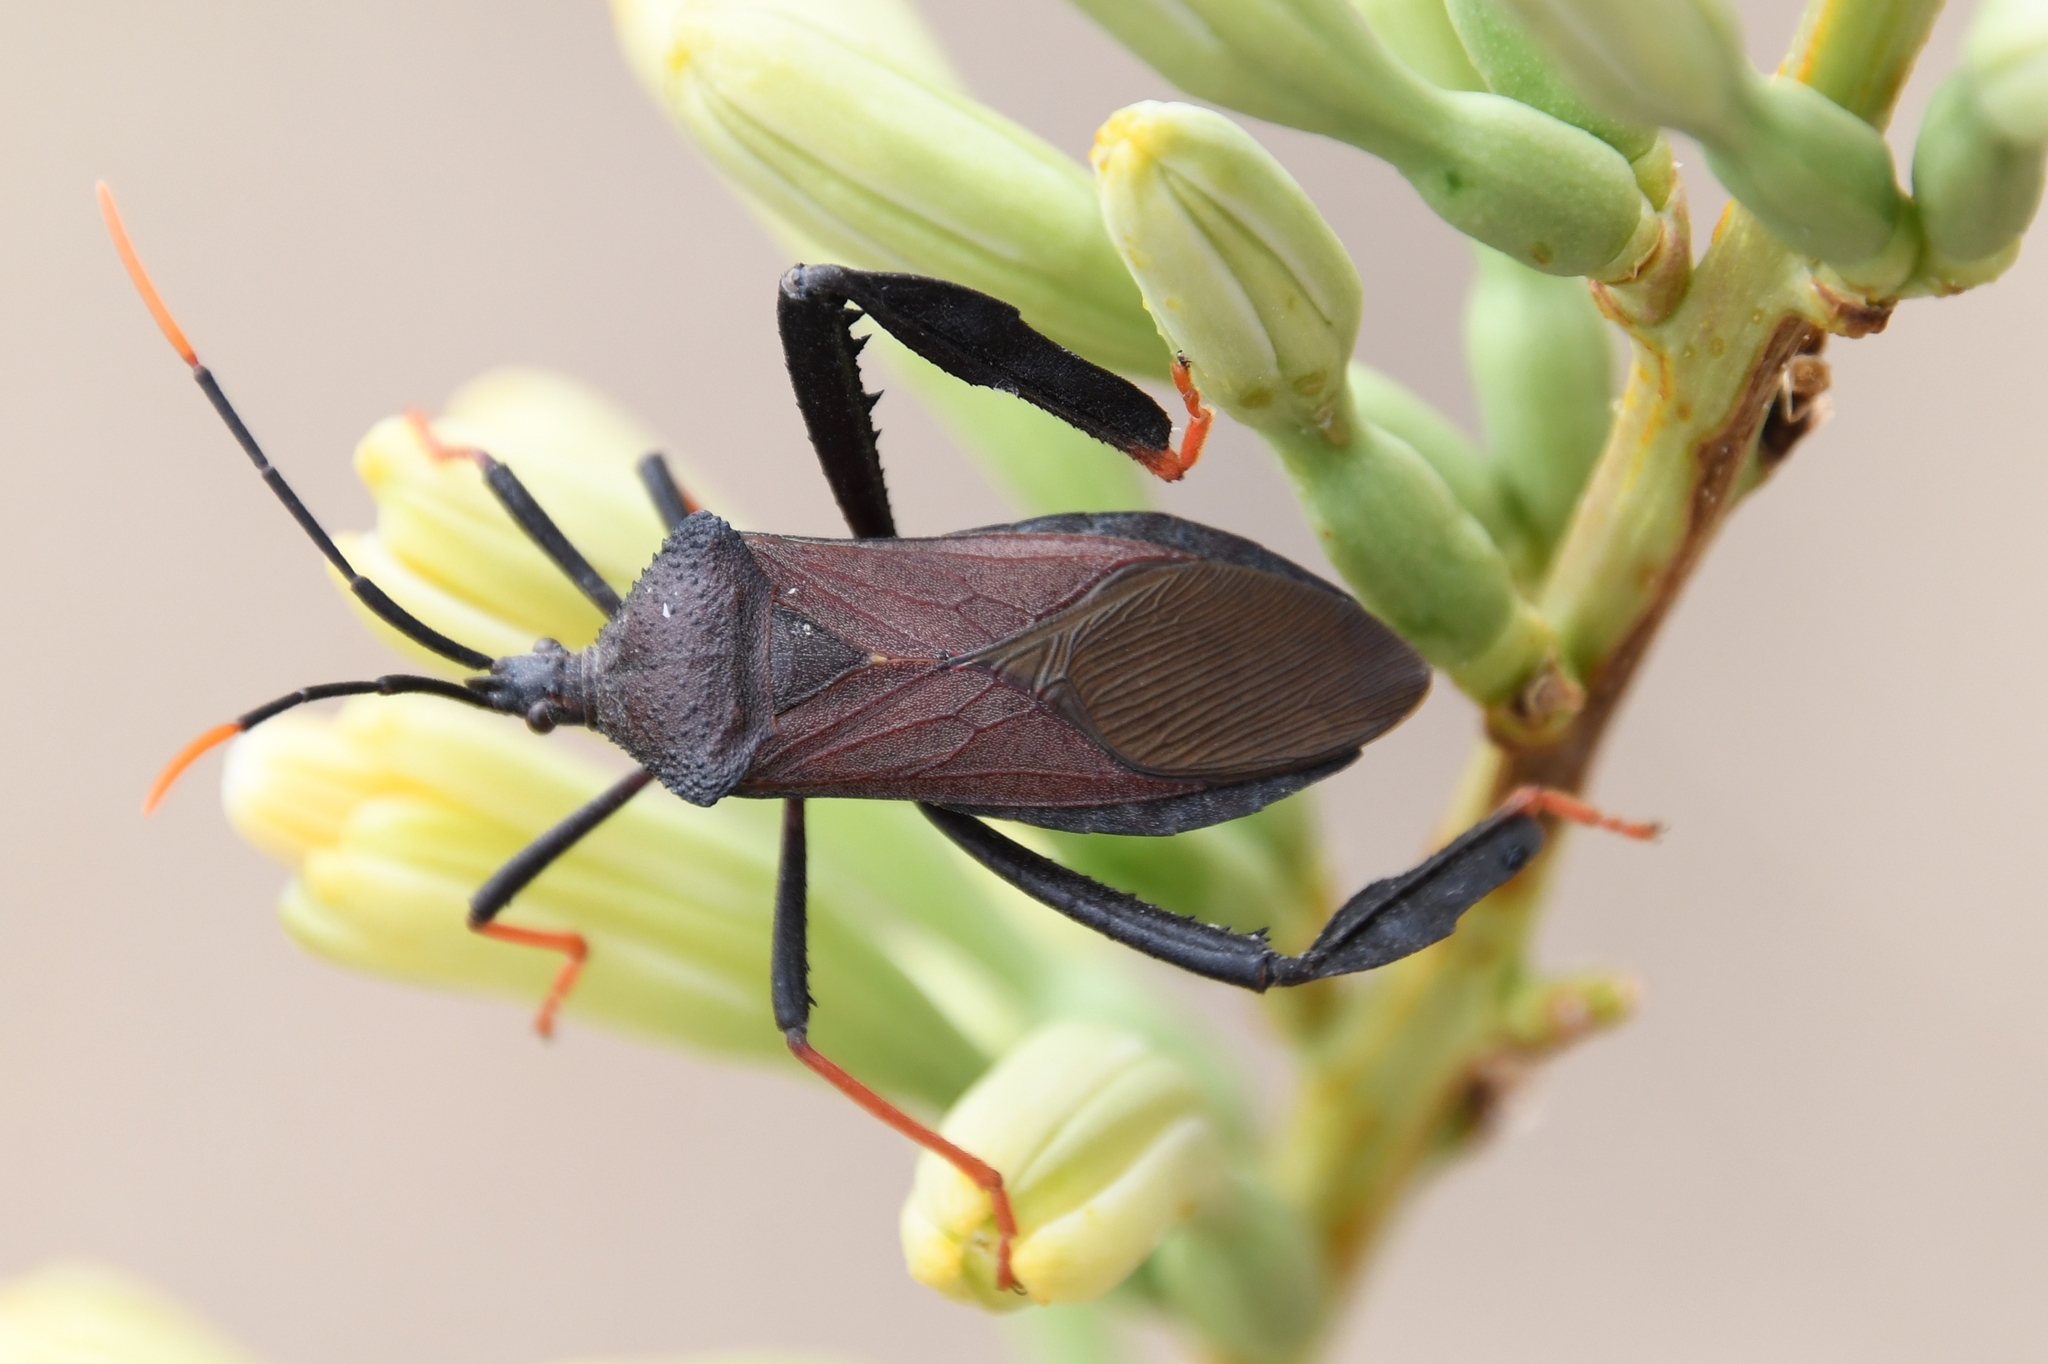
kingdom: Animalia
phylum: Arthropoda
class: Insecta
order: Hemiptera
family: Coreidae
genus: Acanthocephala
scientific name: Acanthocephala thomasi
